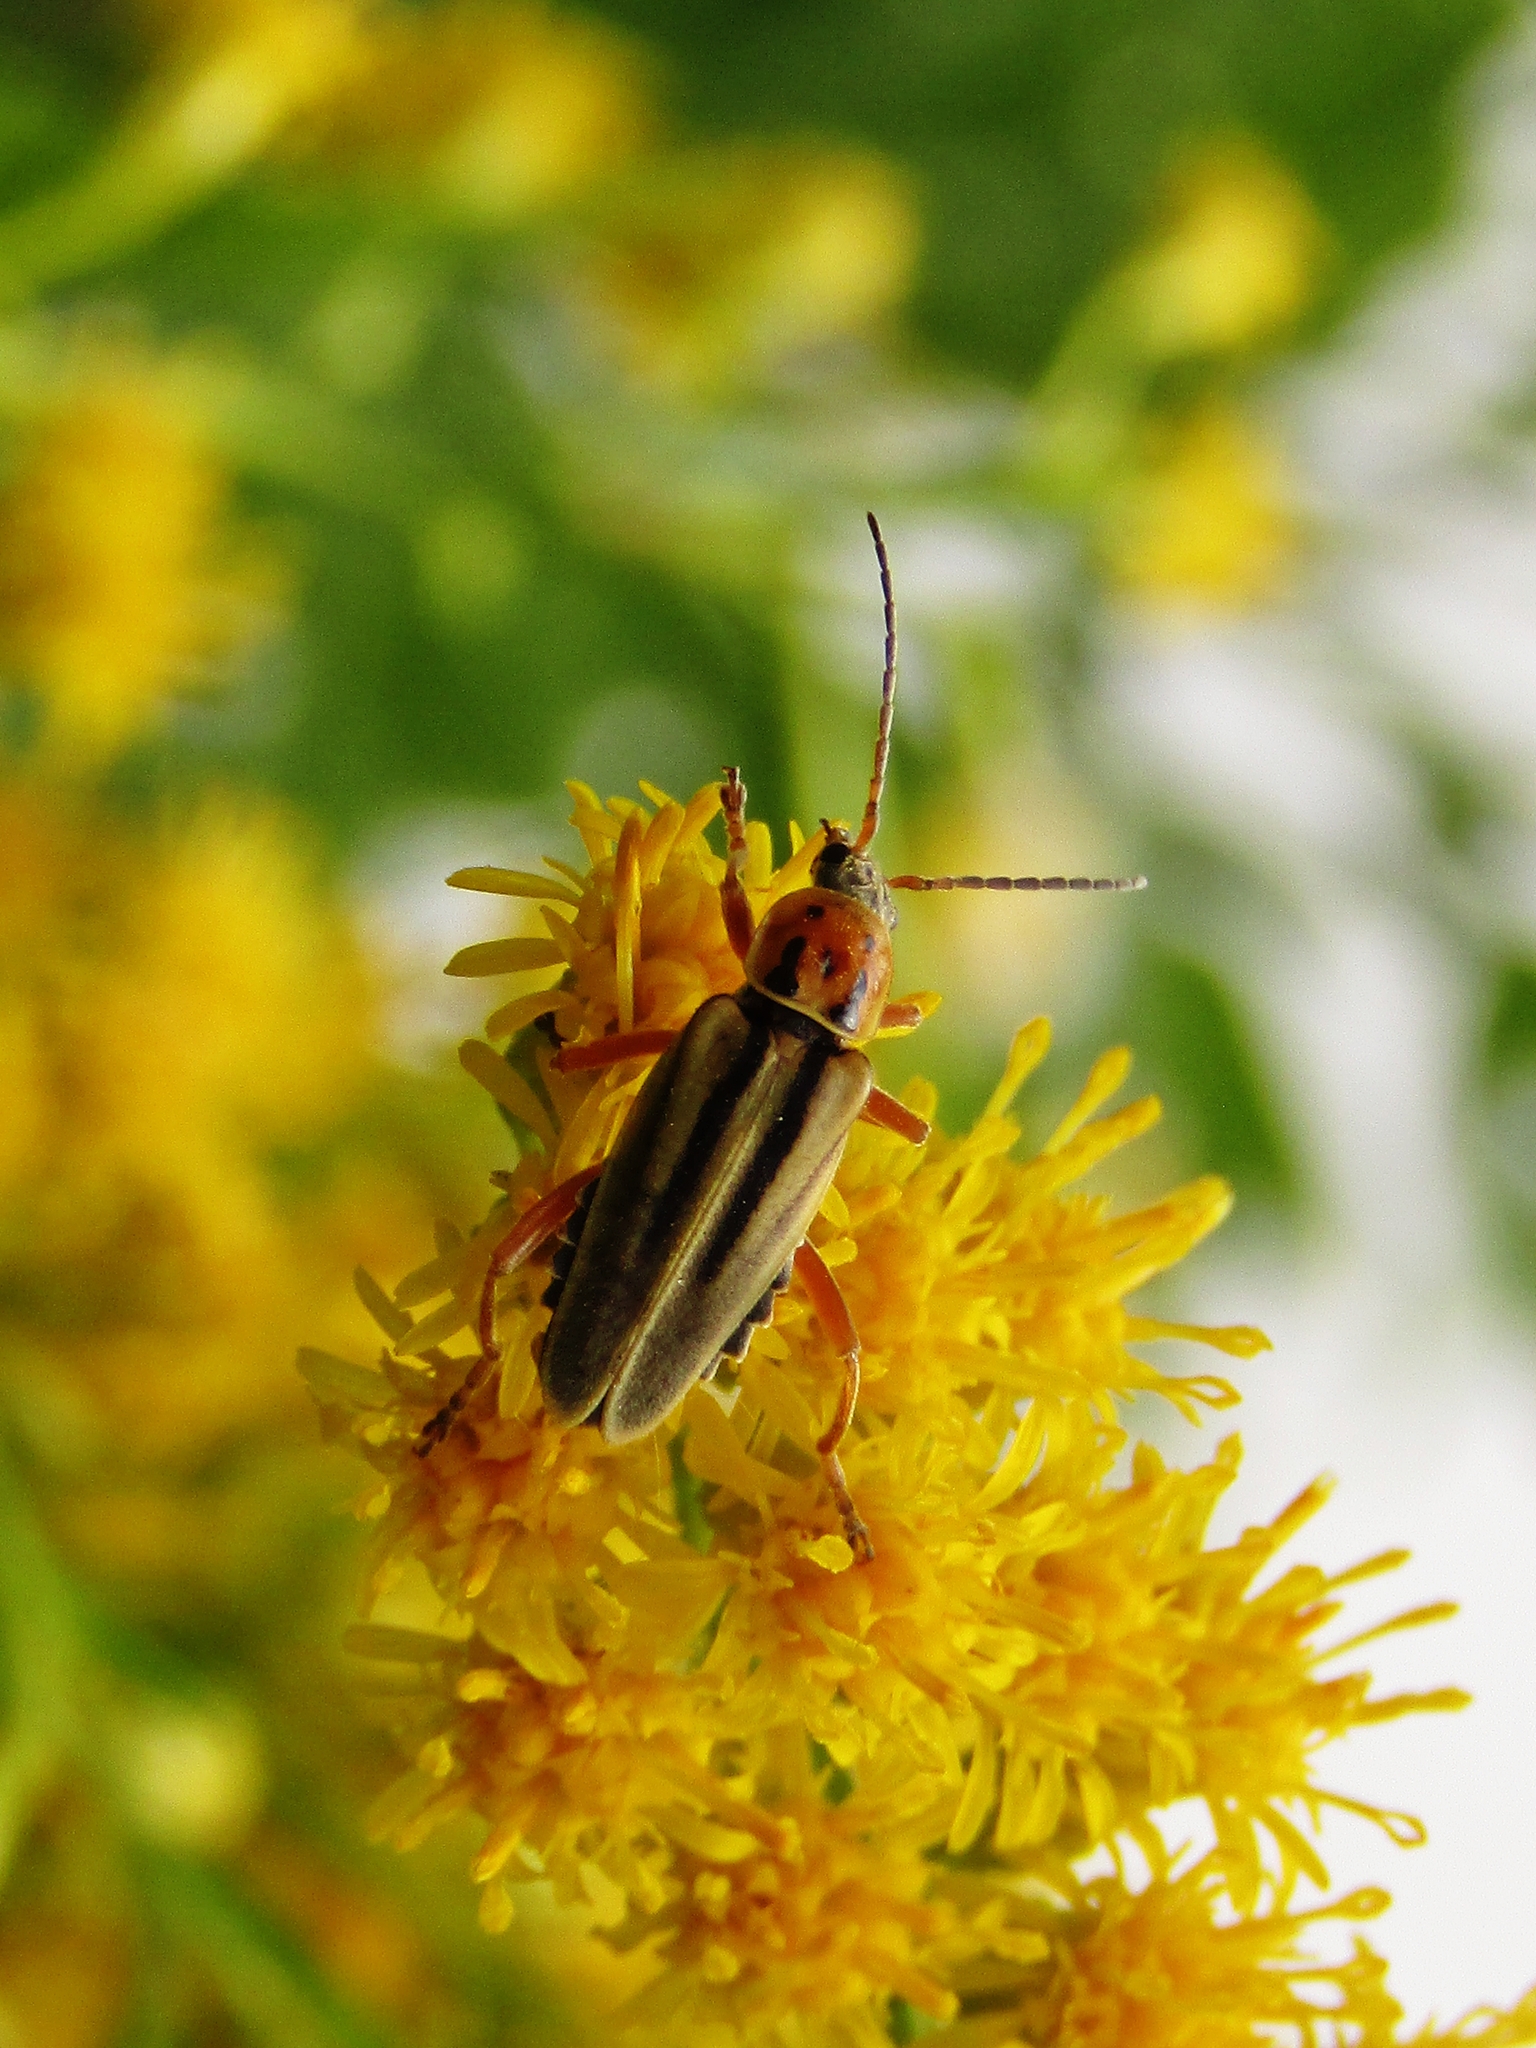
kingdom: Animalia
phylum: Arthropoda
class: Insecta
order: Coleoptera
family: Cantharidae
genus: Chauliognathus
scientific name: Chauliognathus
